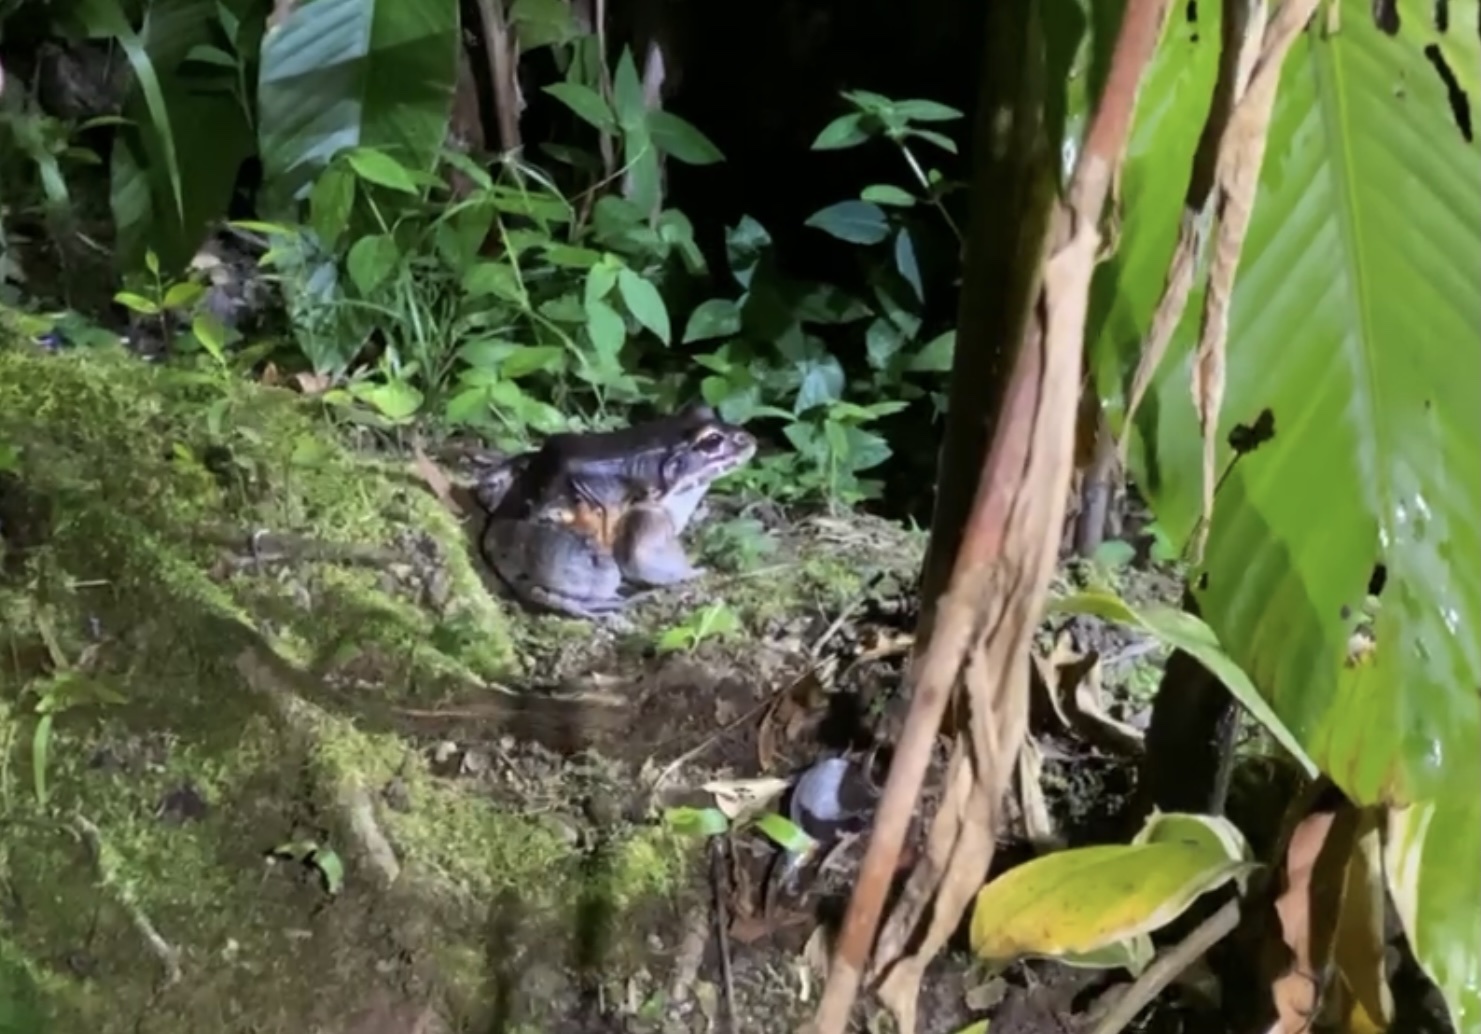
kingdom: Animalia
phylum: Chordata
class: Amphibia
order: Anura
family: Leptodactylidae
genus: Leptodactylus
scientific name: Leptodactylus savagei
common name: Savage's thin-toed frog
